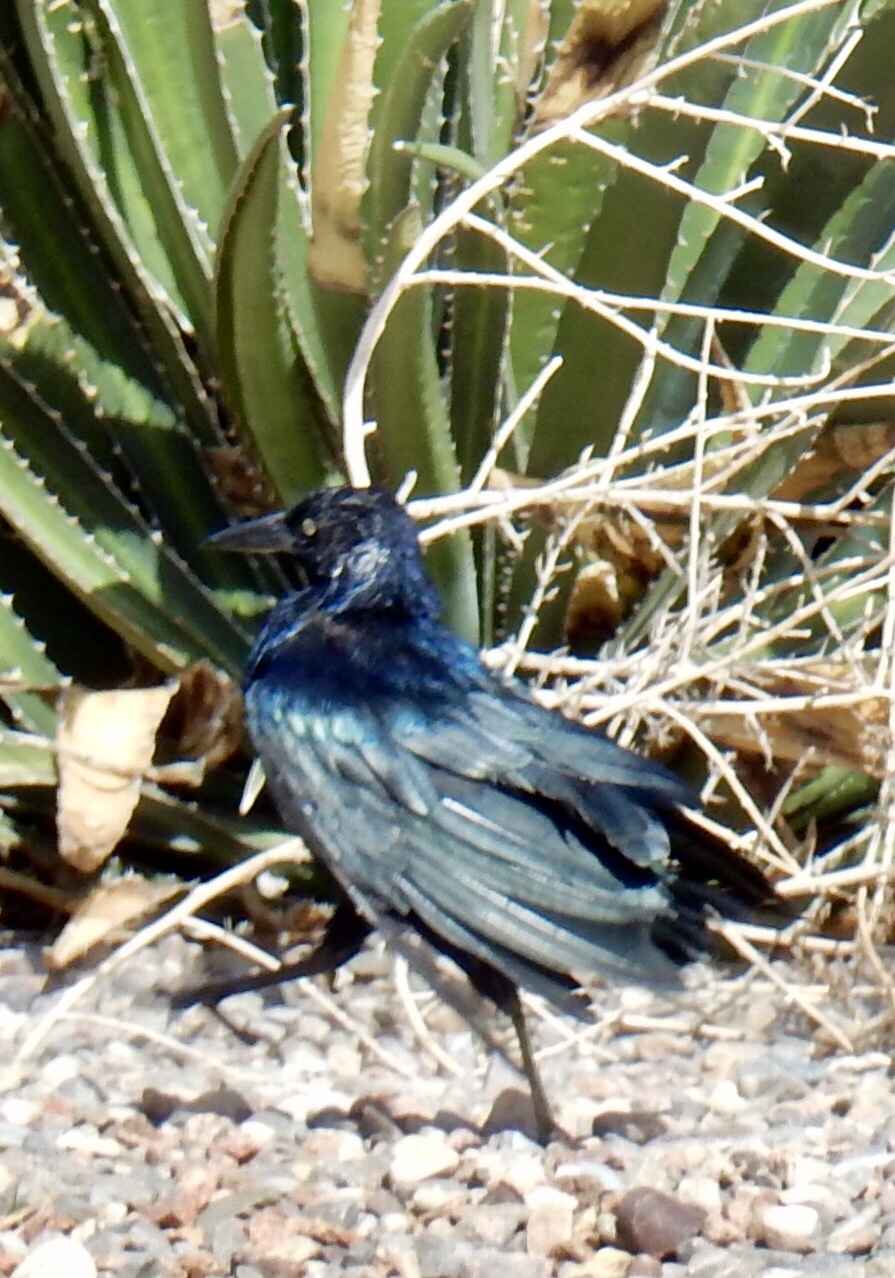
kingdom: Animalia
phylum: Chordata
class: Aves
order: Passeriformes
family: Icteridae
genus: Quiscalus
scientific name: Quiscalus mexicanus
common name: Great-tailed grackle
